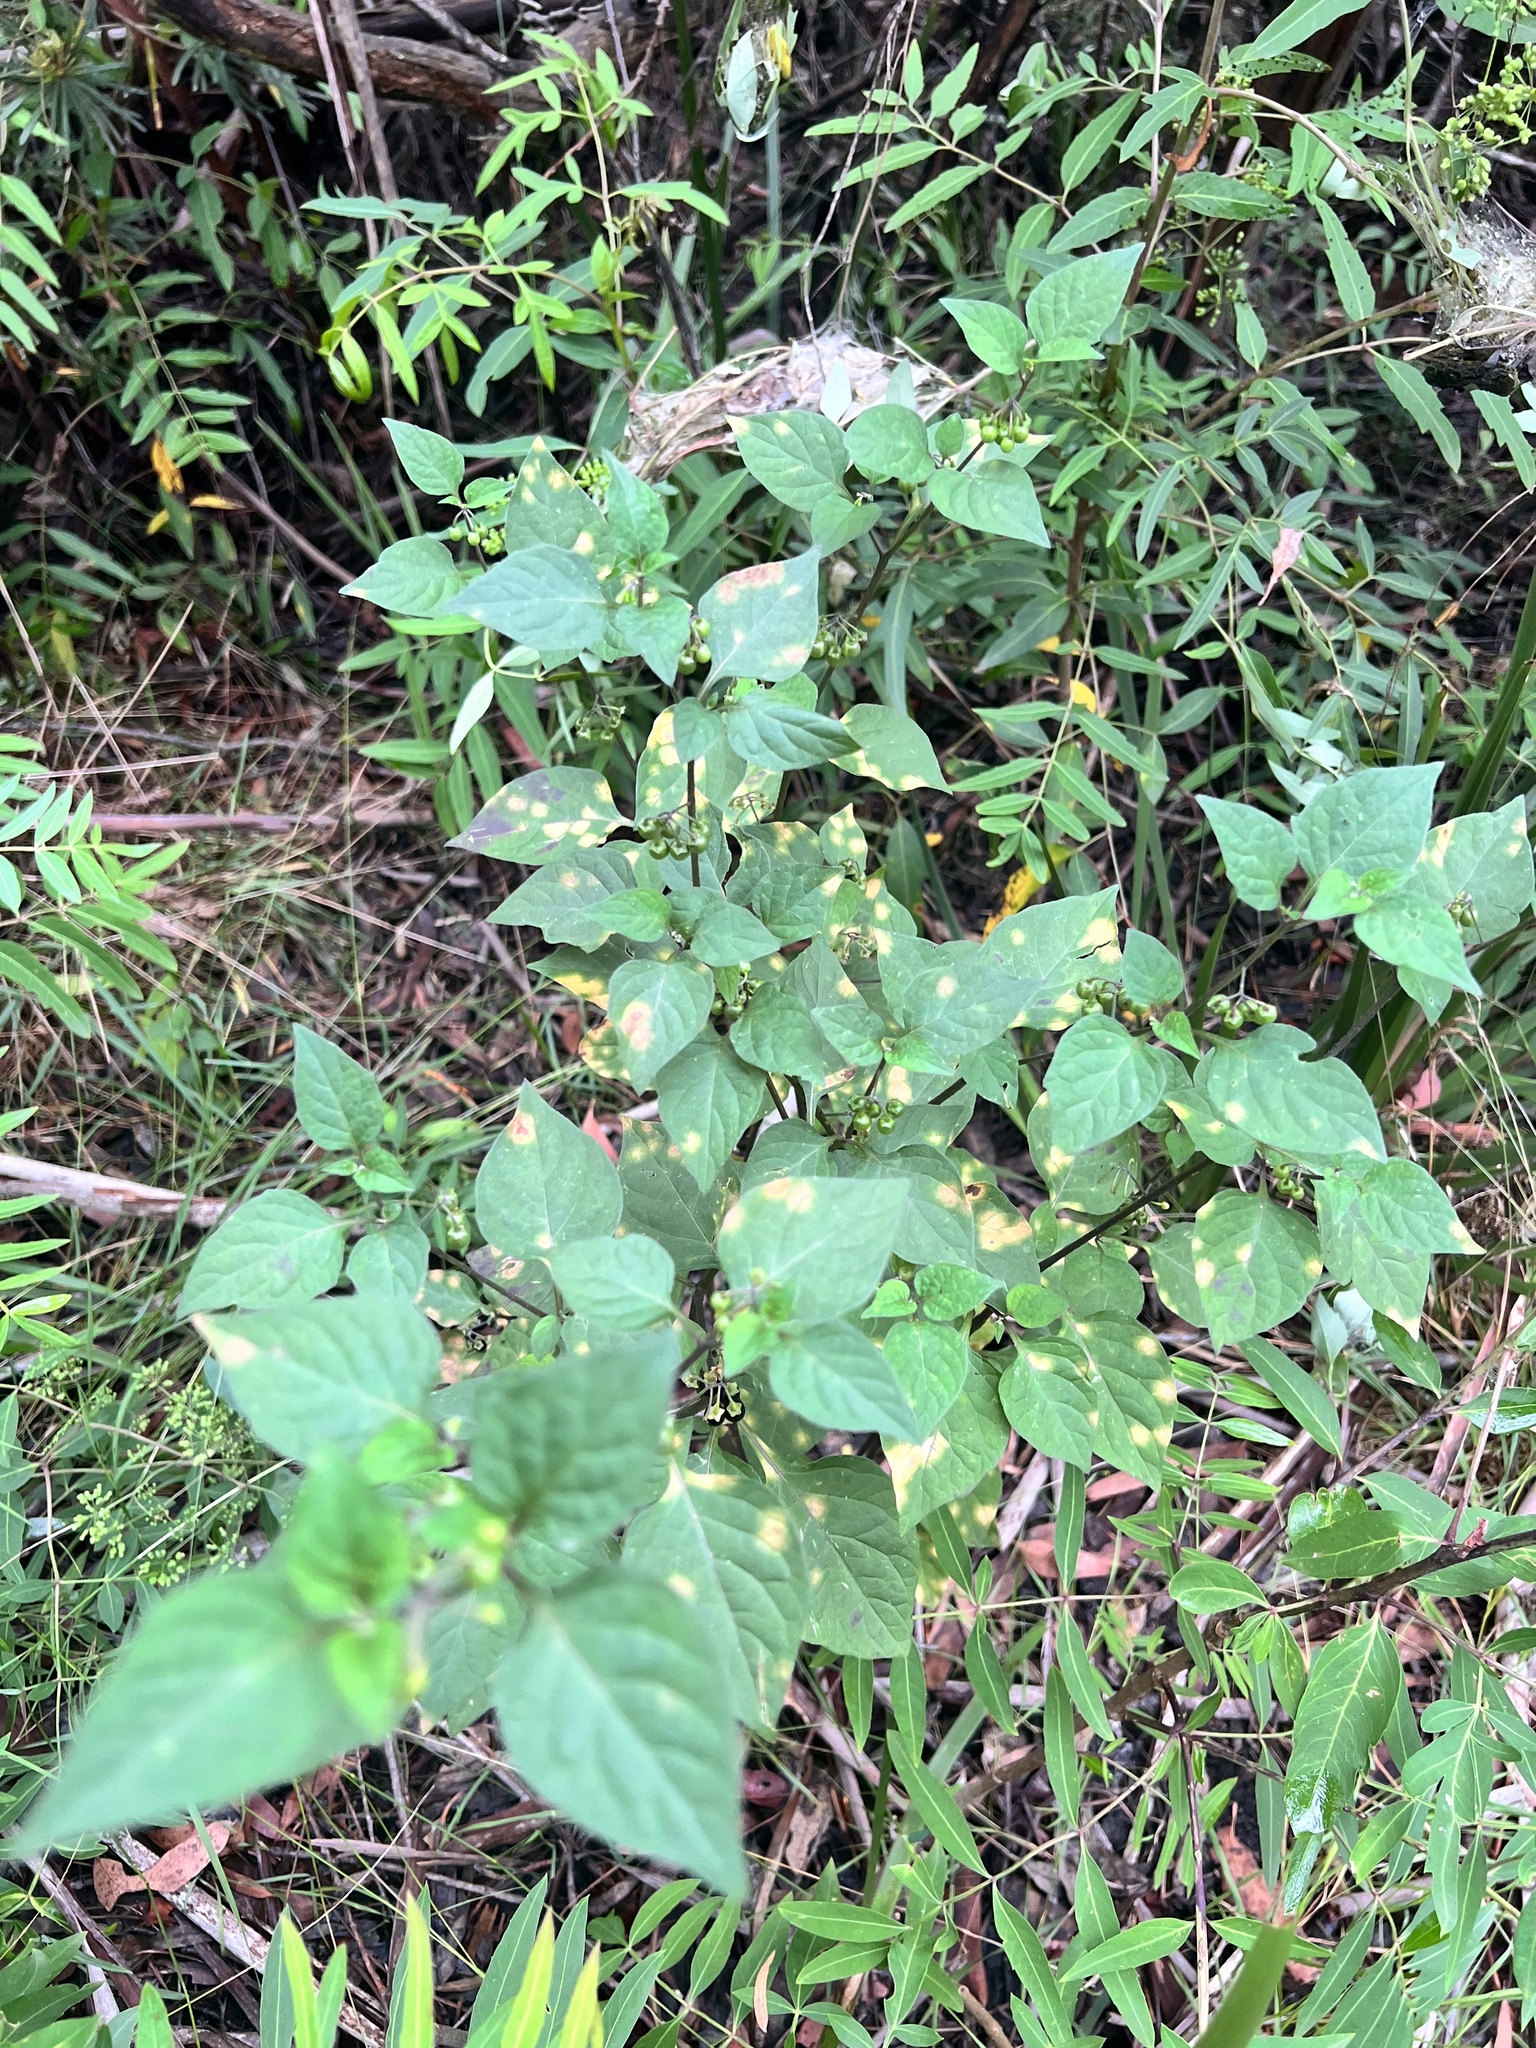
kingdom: Plantae
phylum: Tracheophyta
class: Magnoliopsida
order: Solanales
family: Solanaceae
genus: Solanum
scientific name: Solanum nigrum
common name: Black nightshade
